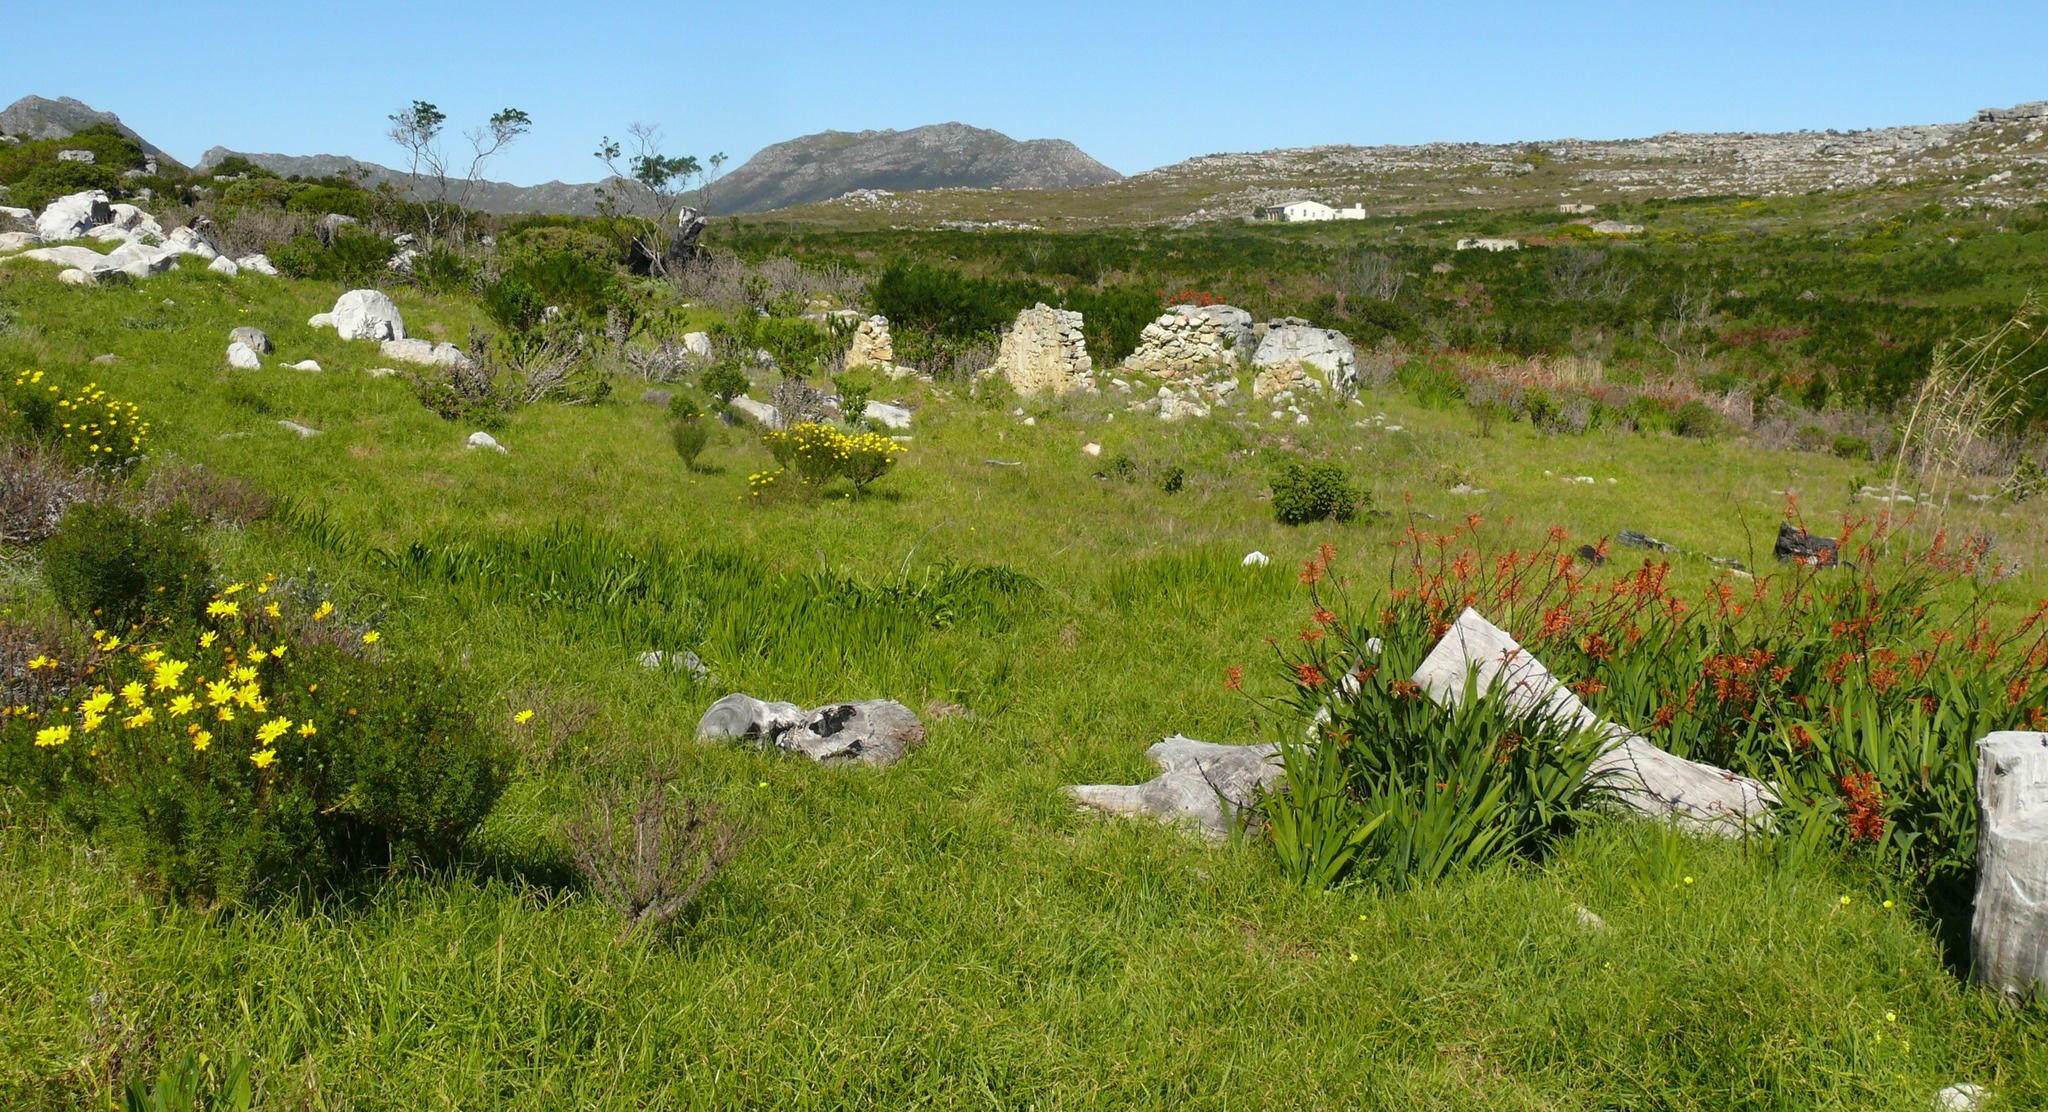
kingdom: Plantae
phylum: Tracheophyta
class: Liliopsida
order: Poales
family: Poaceae
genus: Cenchrus
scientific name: Cenchrus clandestinus
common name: Kikuyugrass
